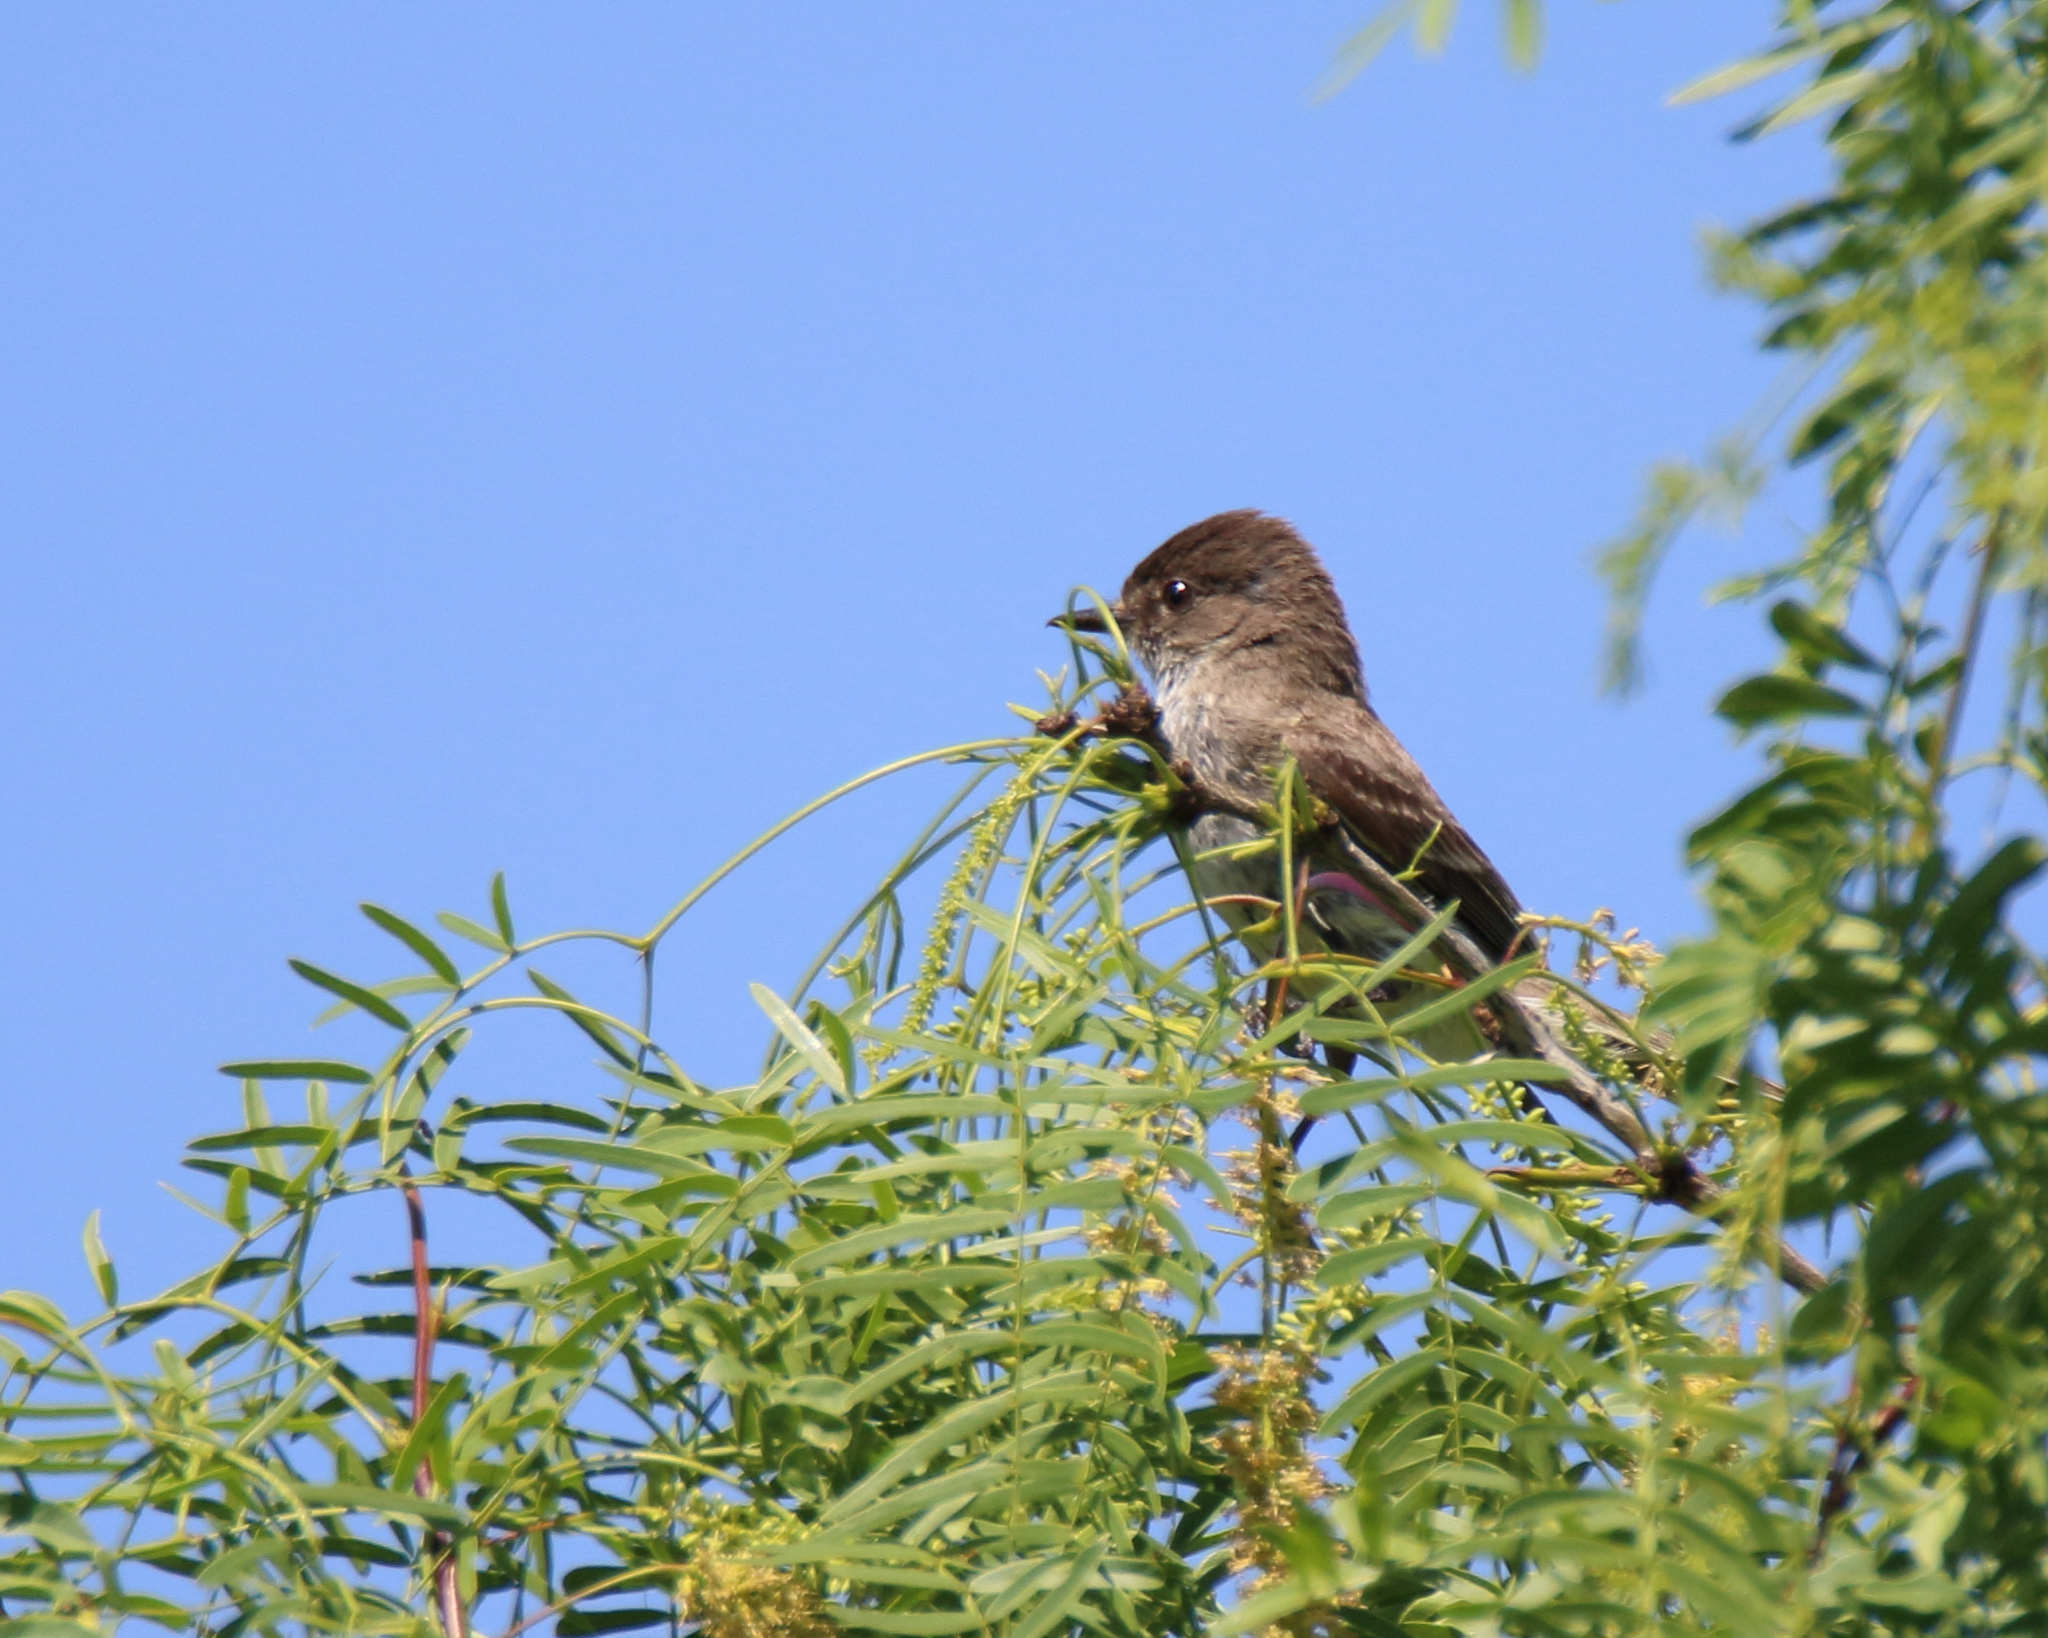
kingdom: Animalia
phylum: Chordata
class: Aves
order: Passeriformes
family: Tyrannidae
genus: Sayornis
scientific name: Sayornis phoebe
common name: Eastern phoebe
